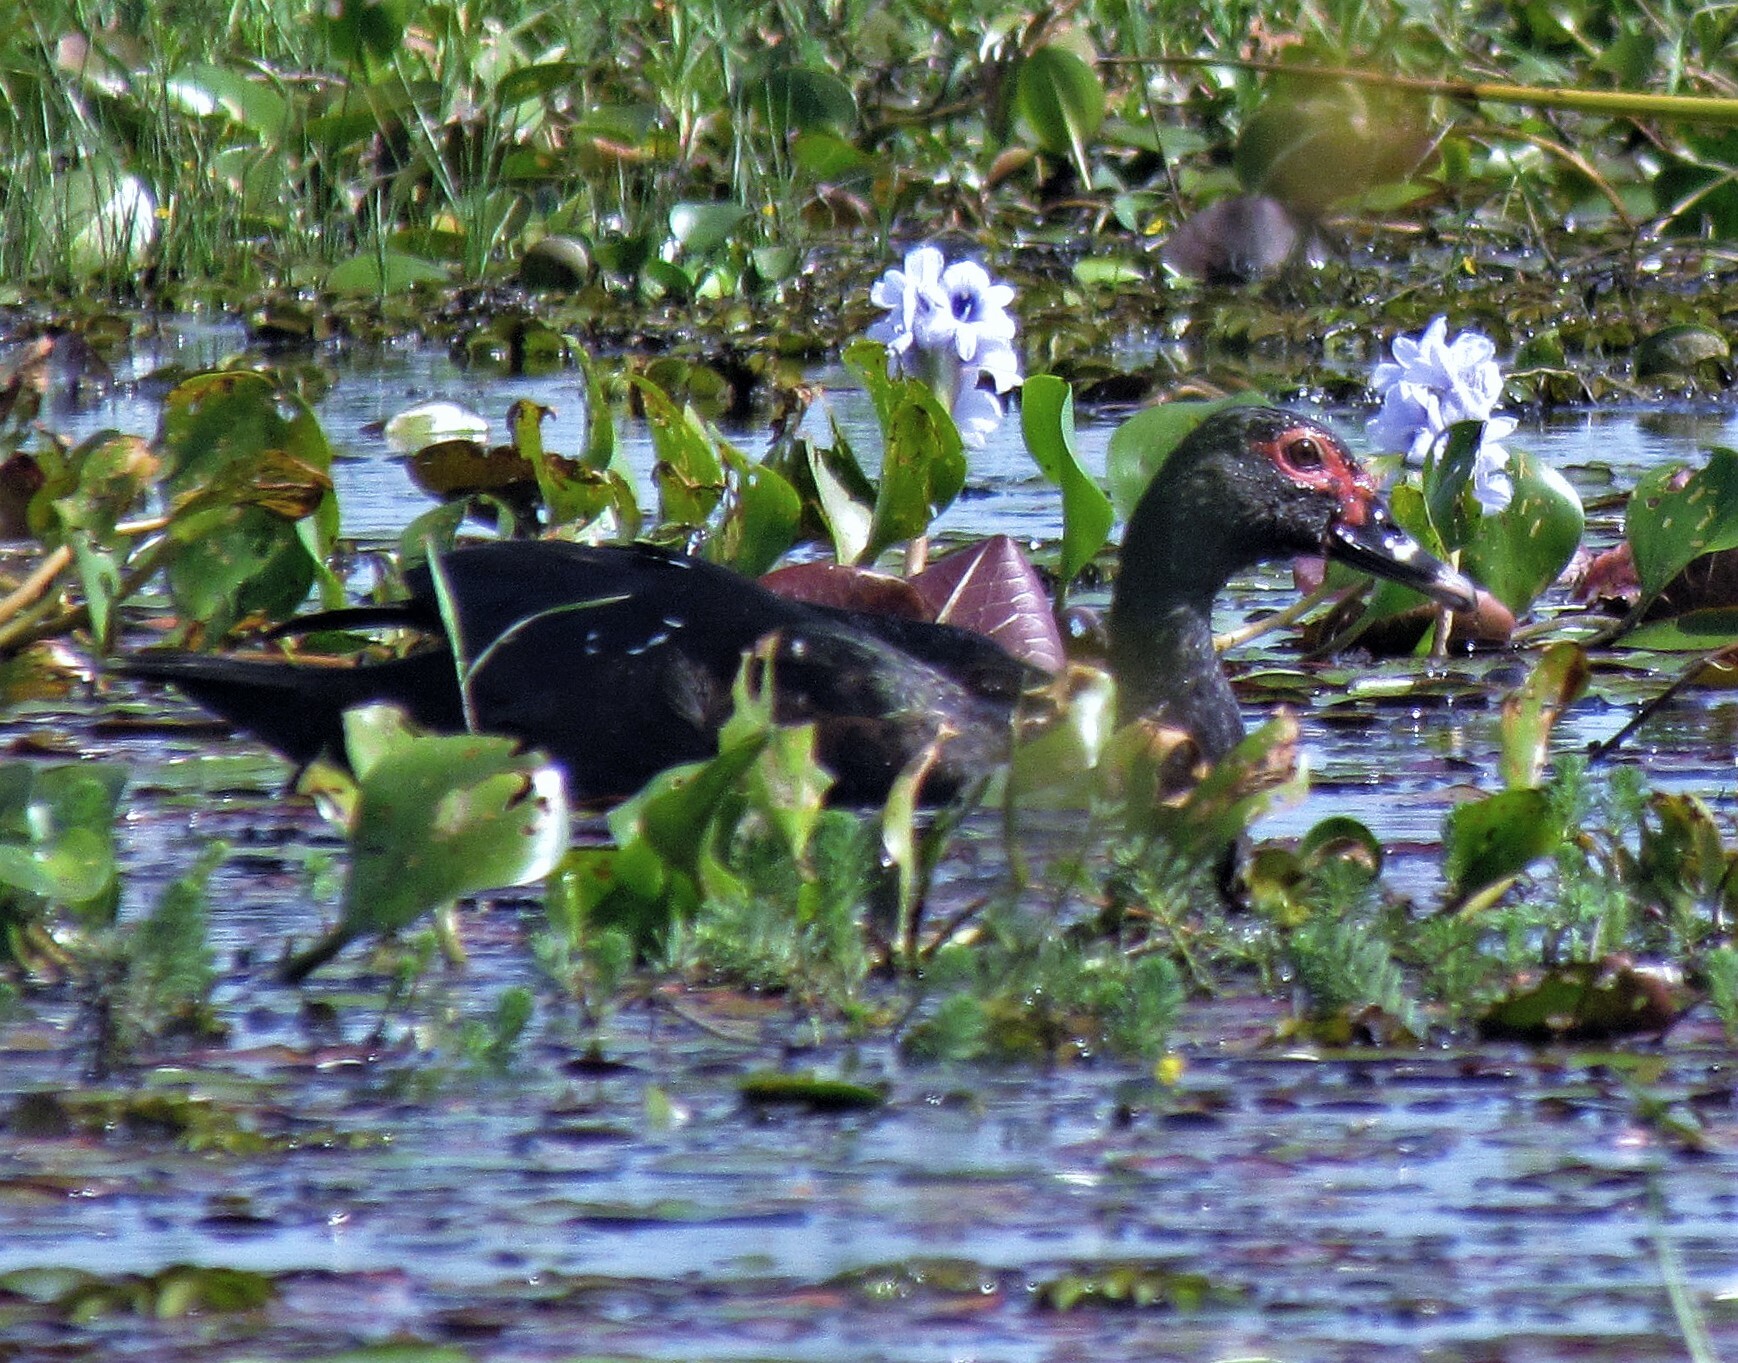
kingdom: Animalia
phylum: Chordata
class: Aves
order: Anseriformes
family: Anatidae
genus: Cairina
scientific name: Cairina moschata
